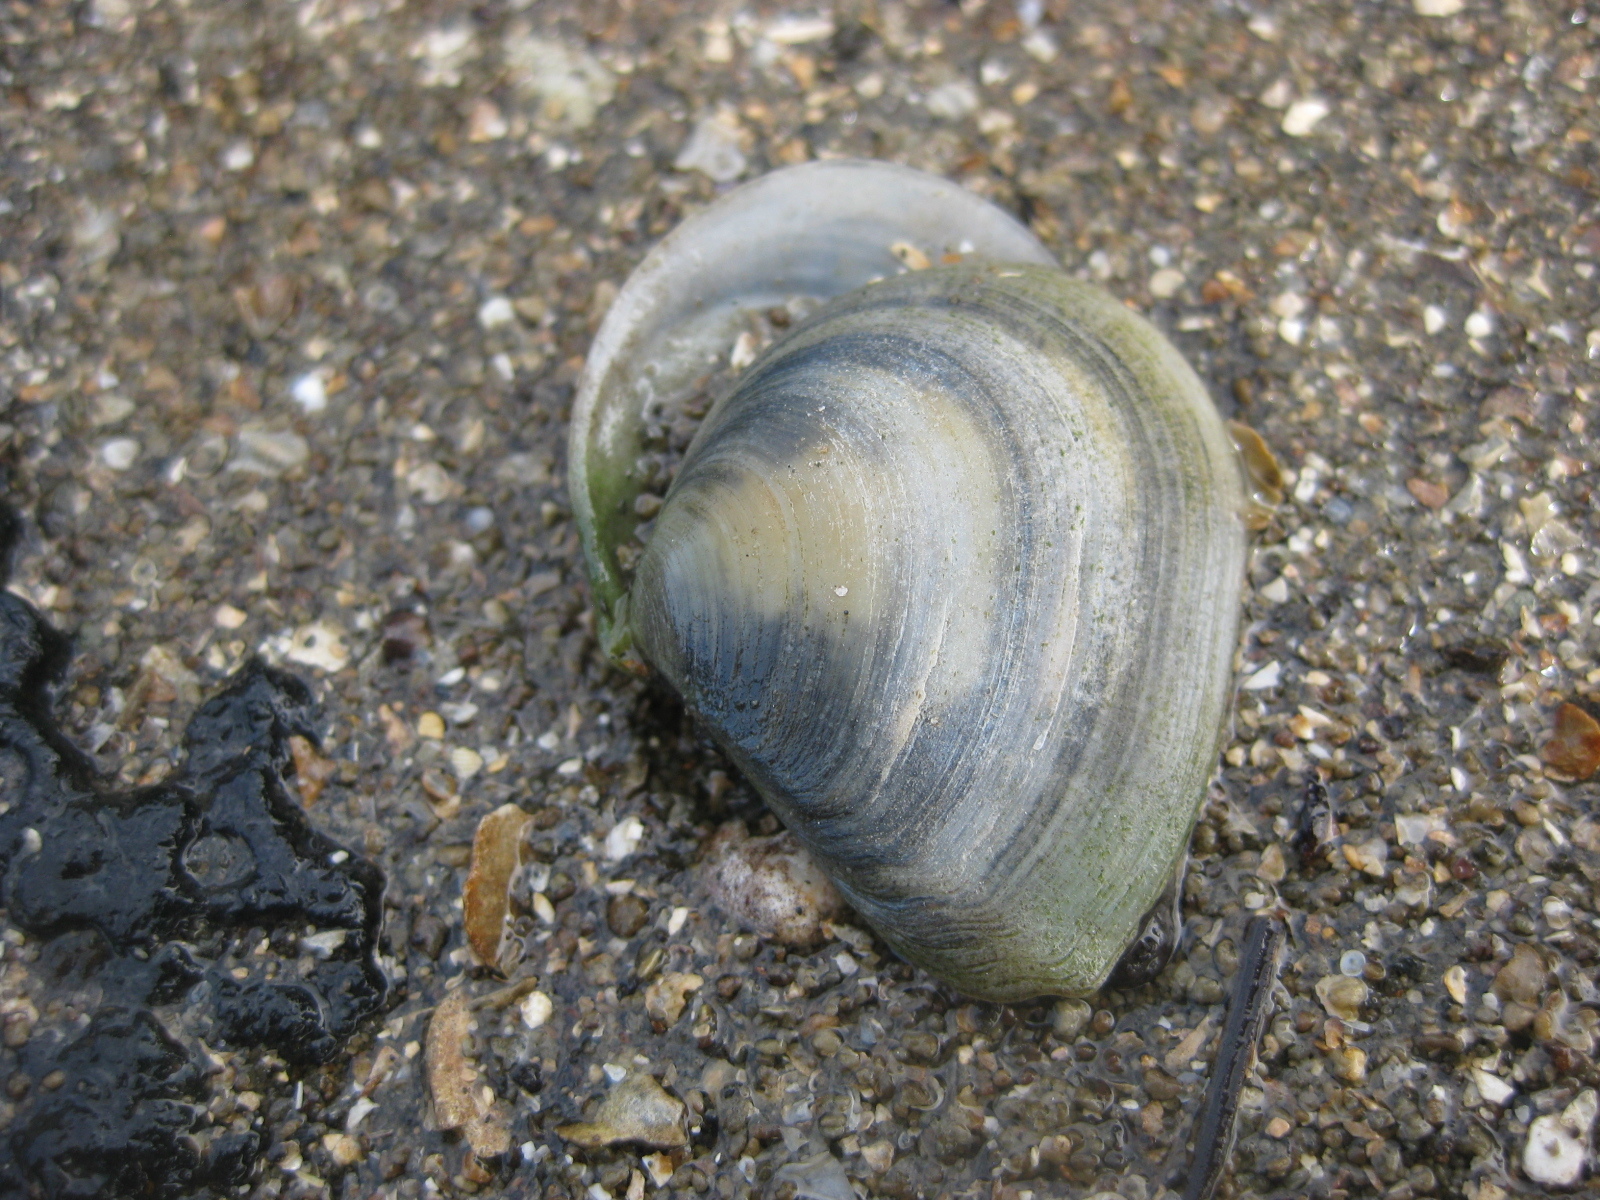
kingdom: Animalia
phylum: Mollusca
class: Bivalvia
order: Cardiida
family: Tellinidae
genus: Macomona
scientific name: Macomona liliana
